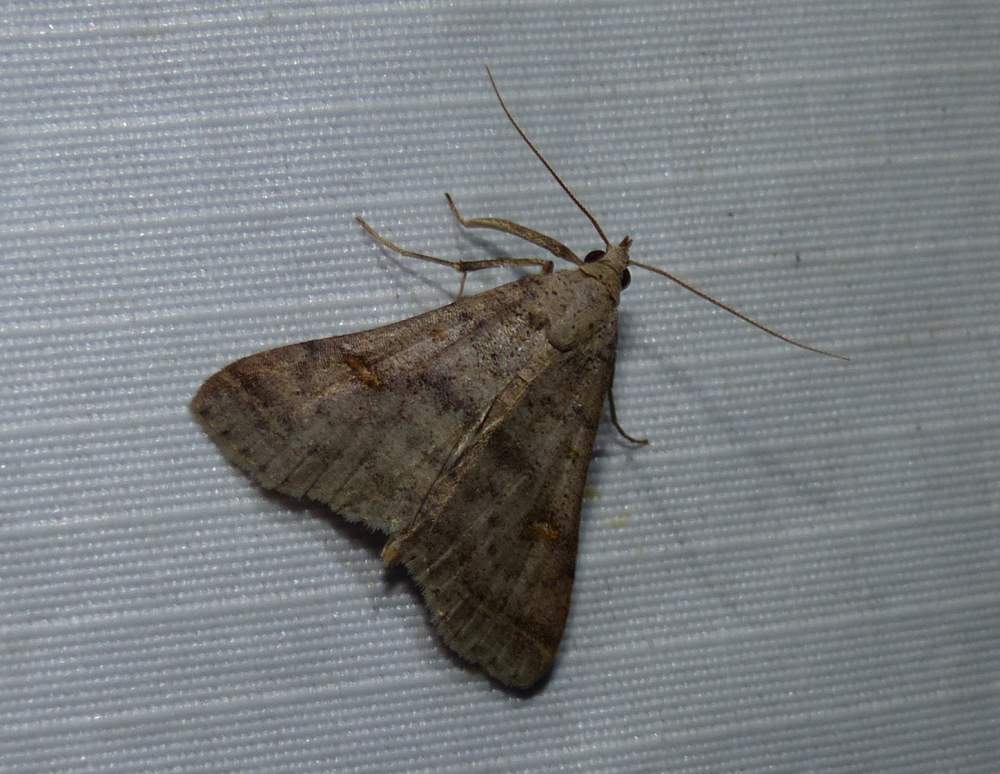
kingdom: Animalia
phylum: Arthropoda
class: Insecta
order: Lepidoptera
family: Erebidae
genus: Bleptina
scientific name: Bleptina caradrinalis
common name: Bent-winged owlet
